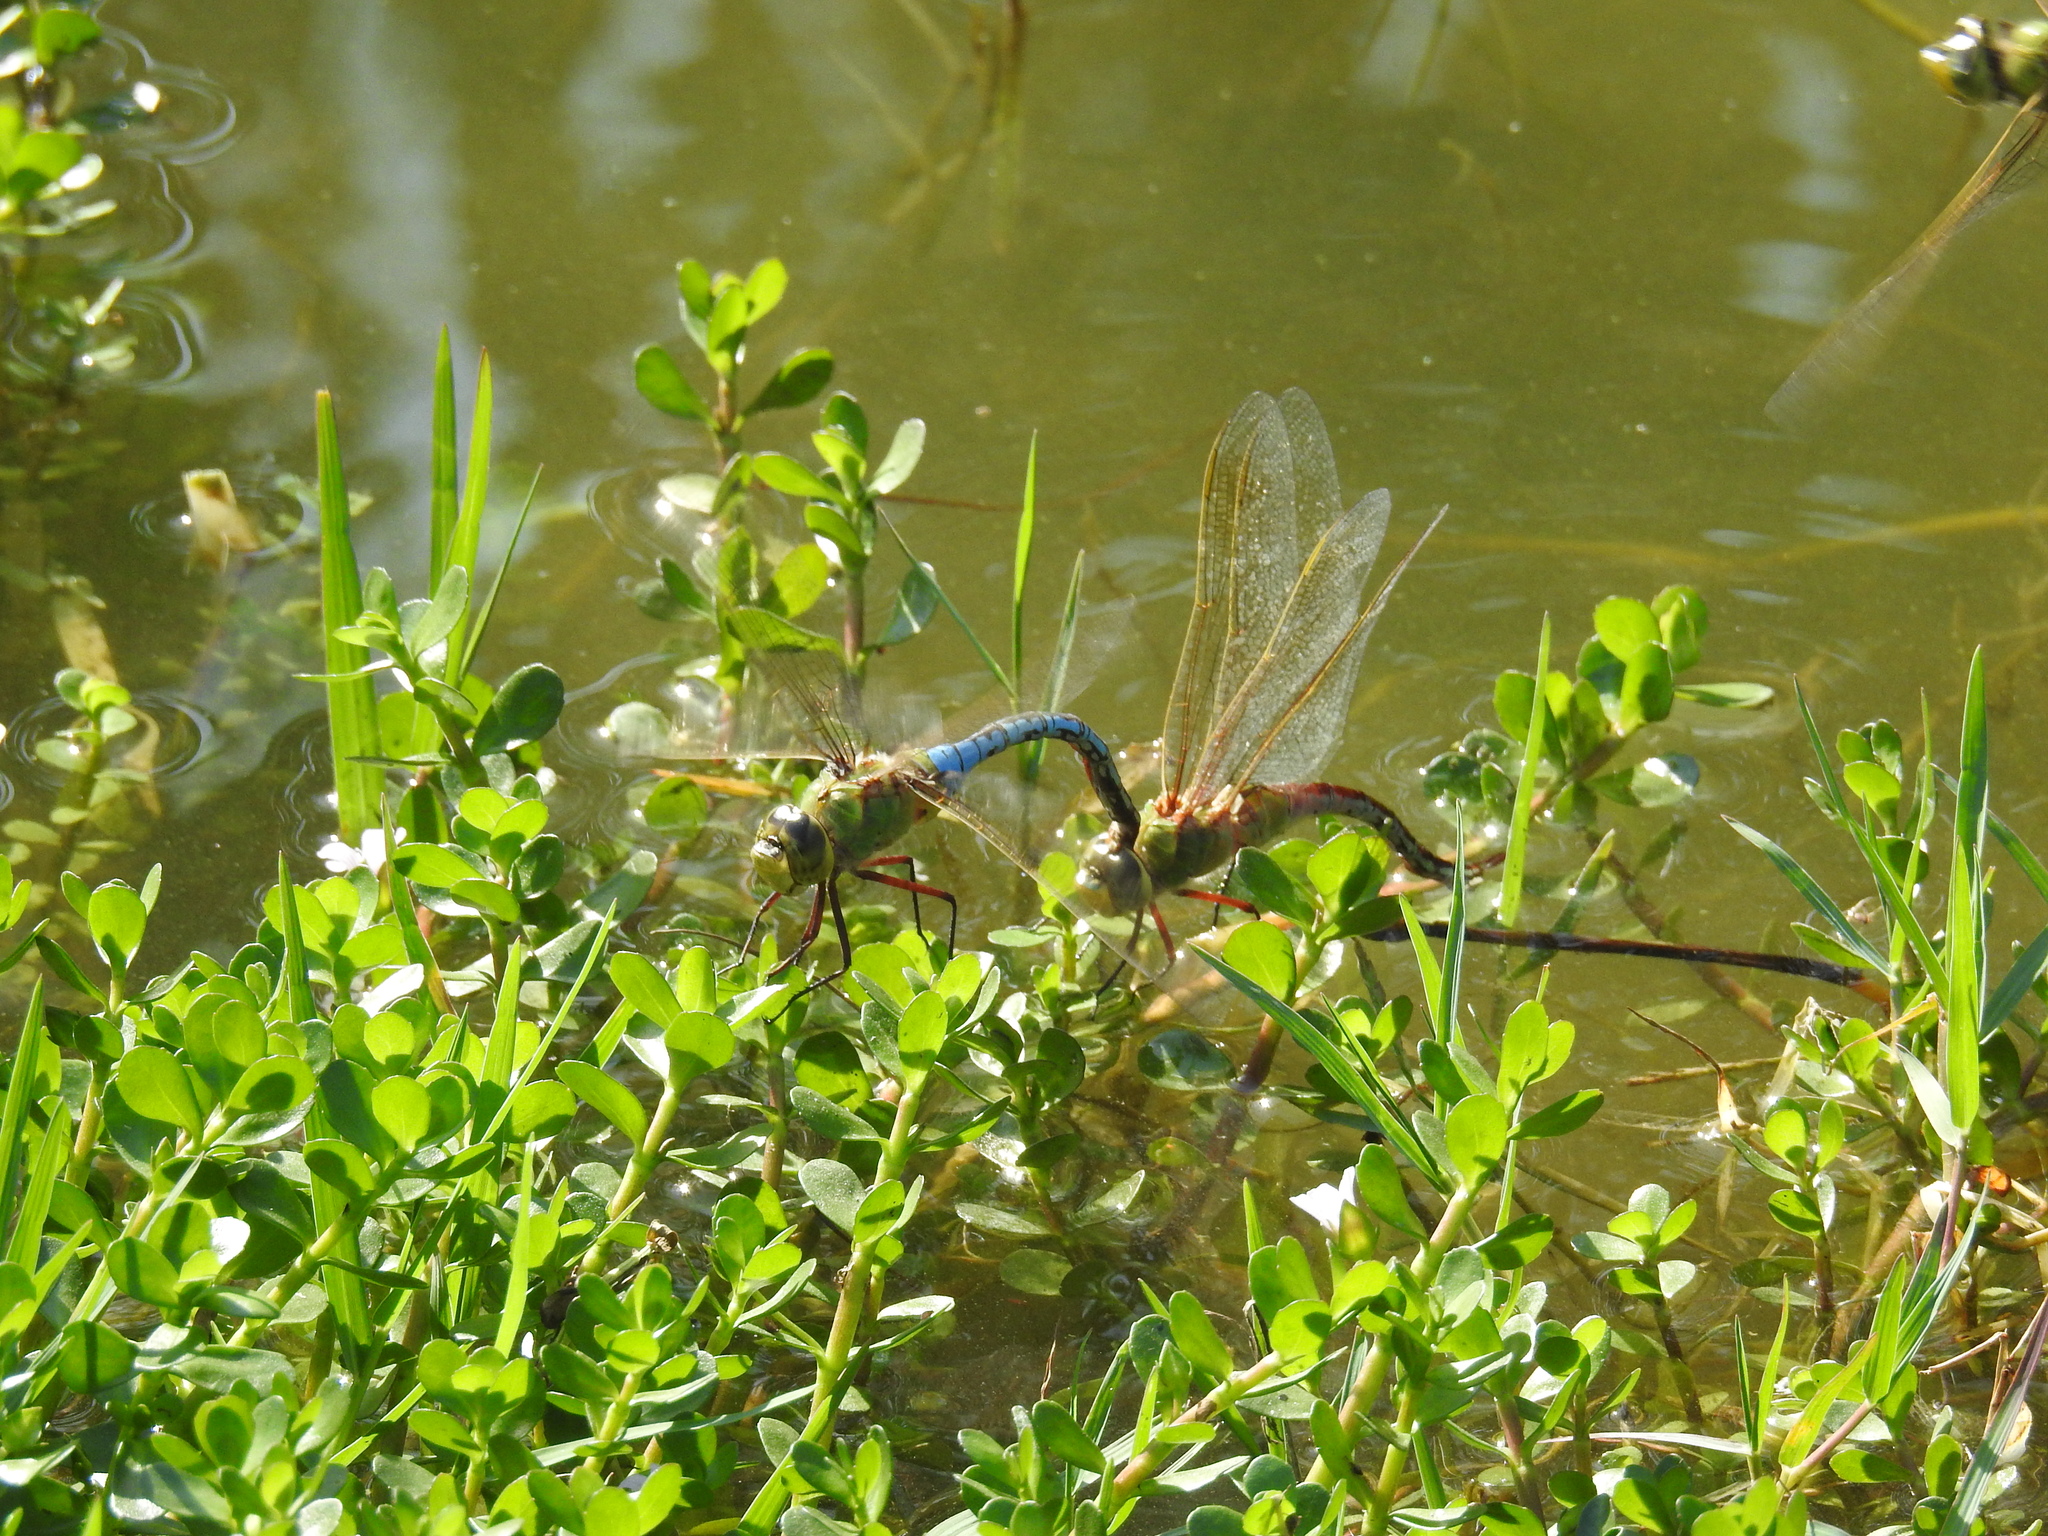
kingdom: Animalia
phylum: Arthropoda
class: Insecta
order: Odonata
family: Aeshnidae
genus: Anax
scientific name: Anax junius
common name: Common green darner
